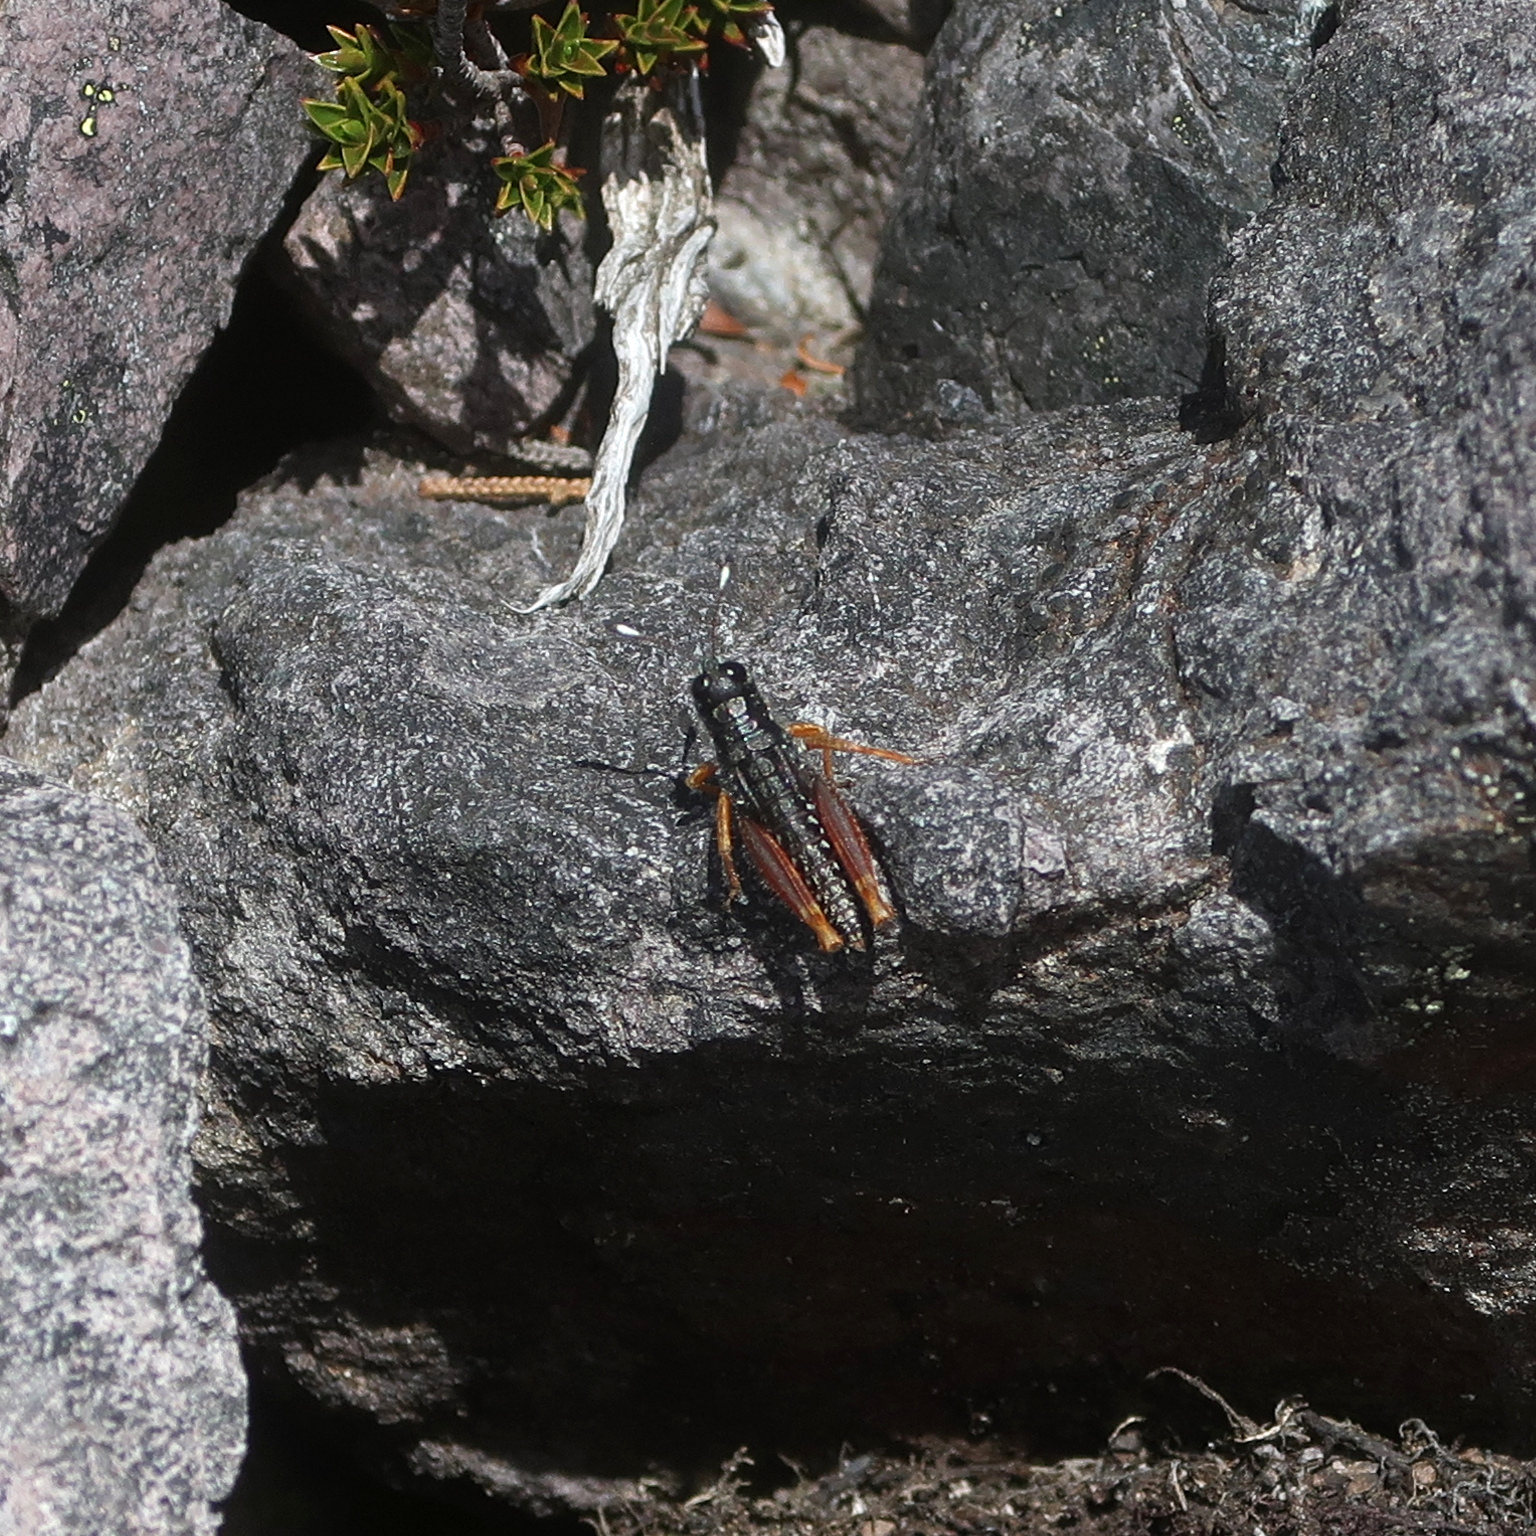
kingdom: Animalia
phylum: Arthropoda
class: Insecta
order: Orthoptera
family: Acrididae
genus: Tasmanalpina
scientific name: Tasmanalpina clavata
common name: Tasmanian velvet grasshopper
